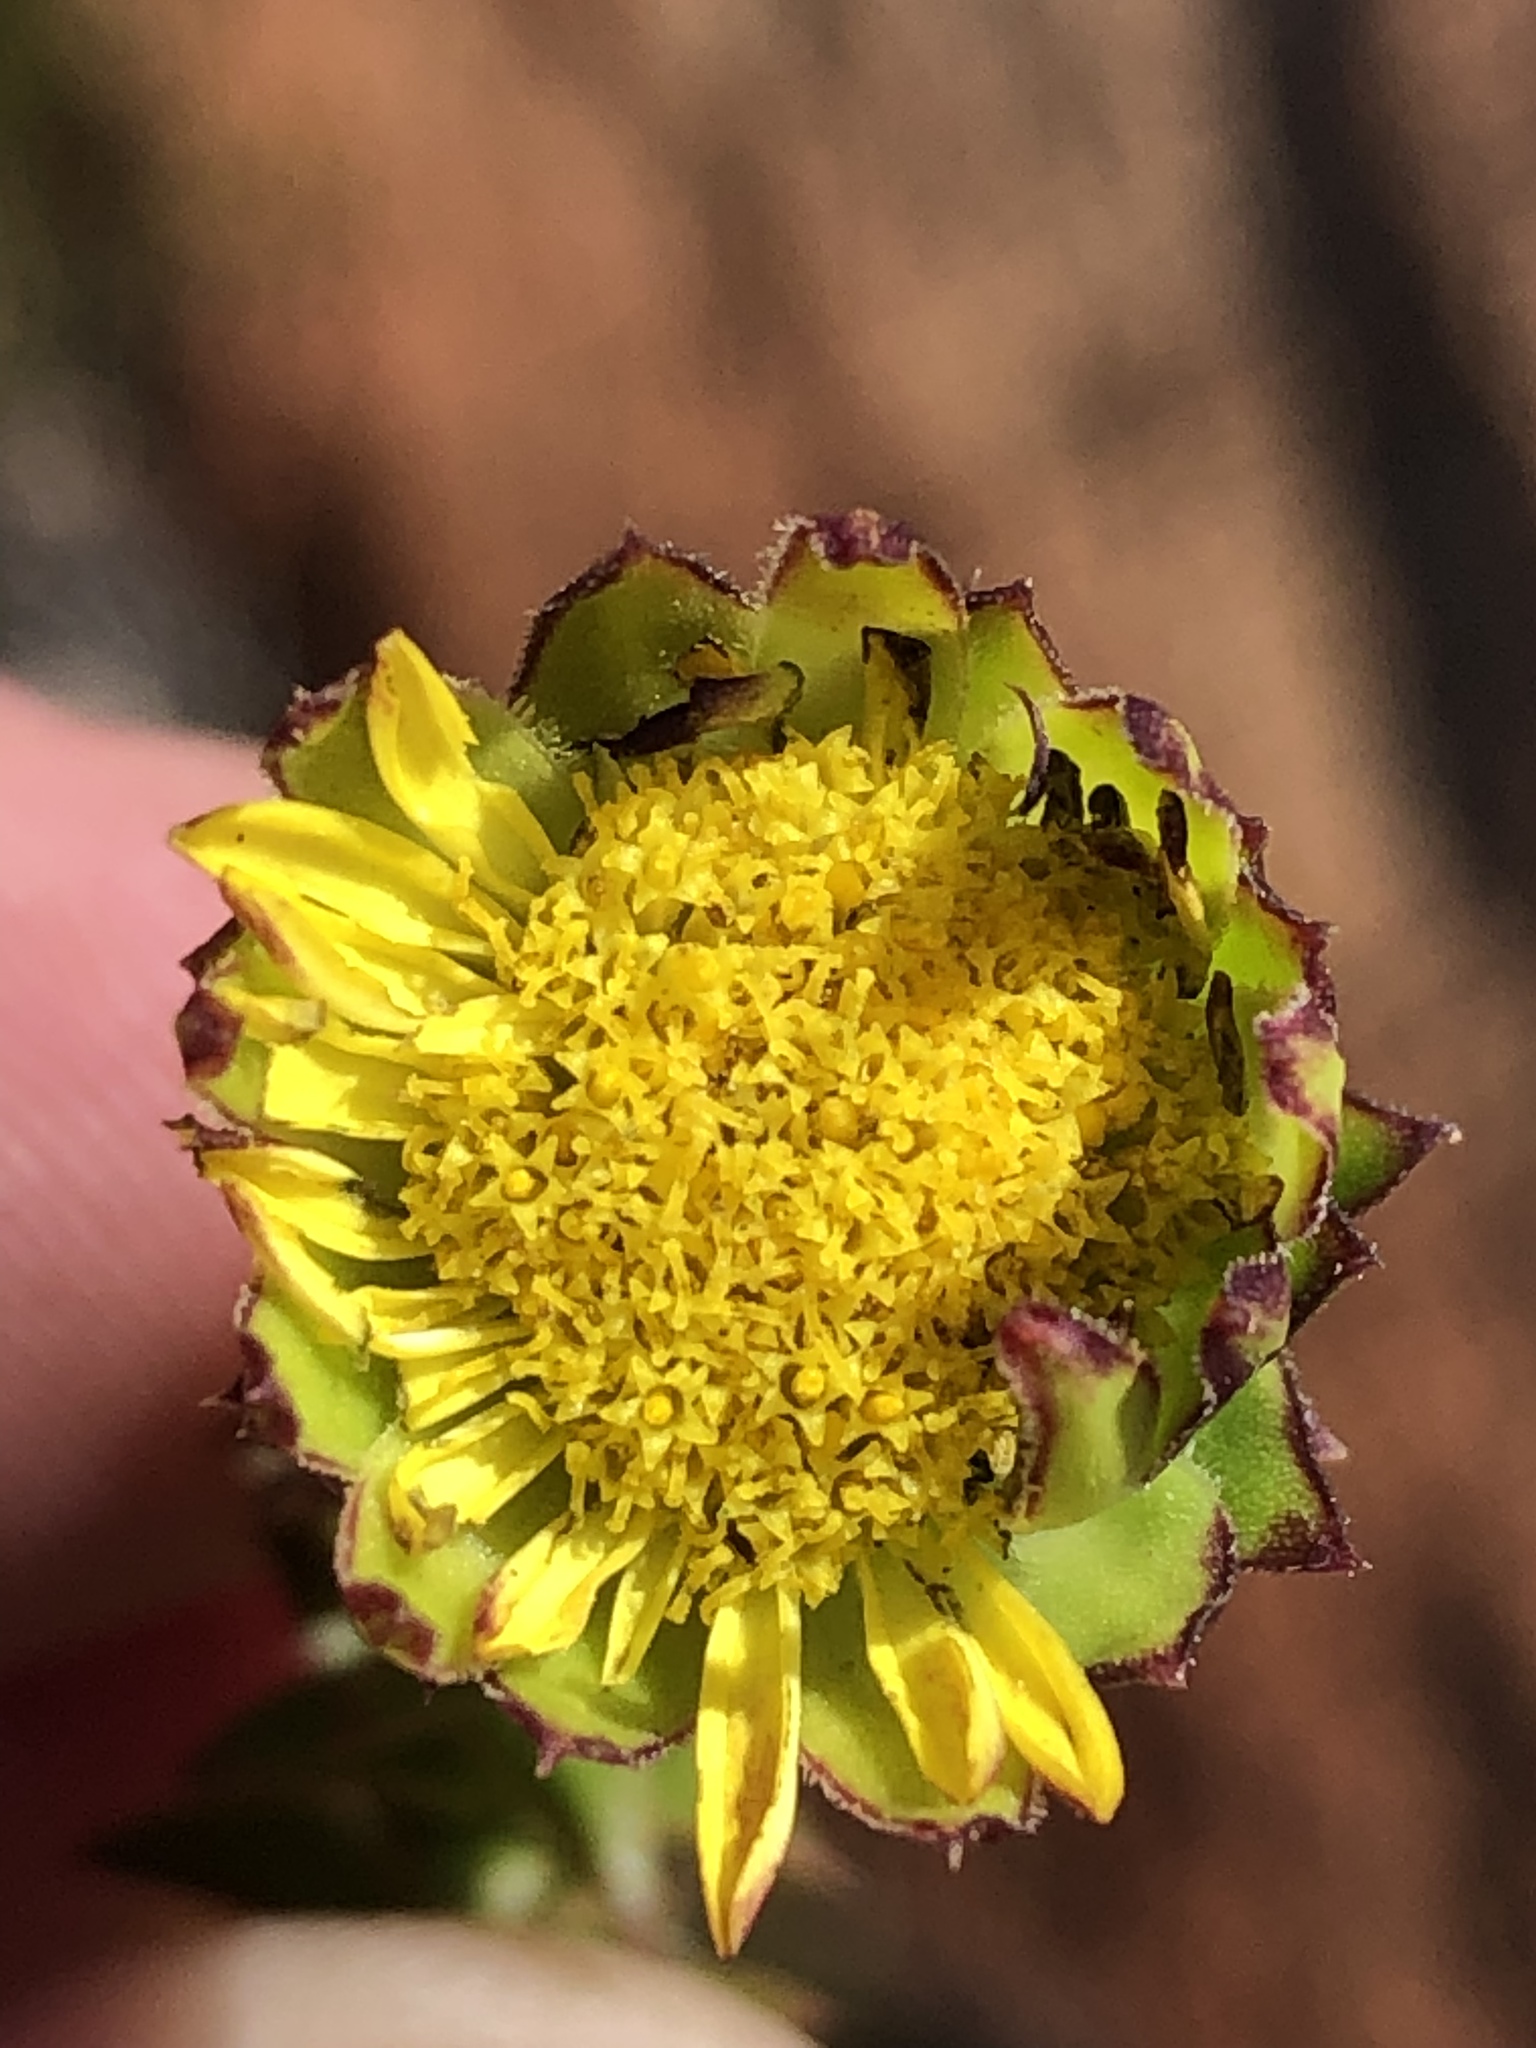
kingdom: Plantae
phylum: Tracheophyta
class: Magnoliopsida
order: Asterales
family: Asteraceae
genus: Oedera
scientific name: Oedera imbricata
